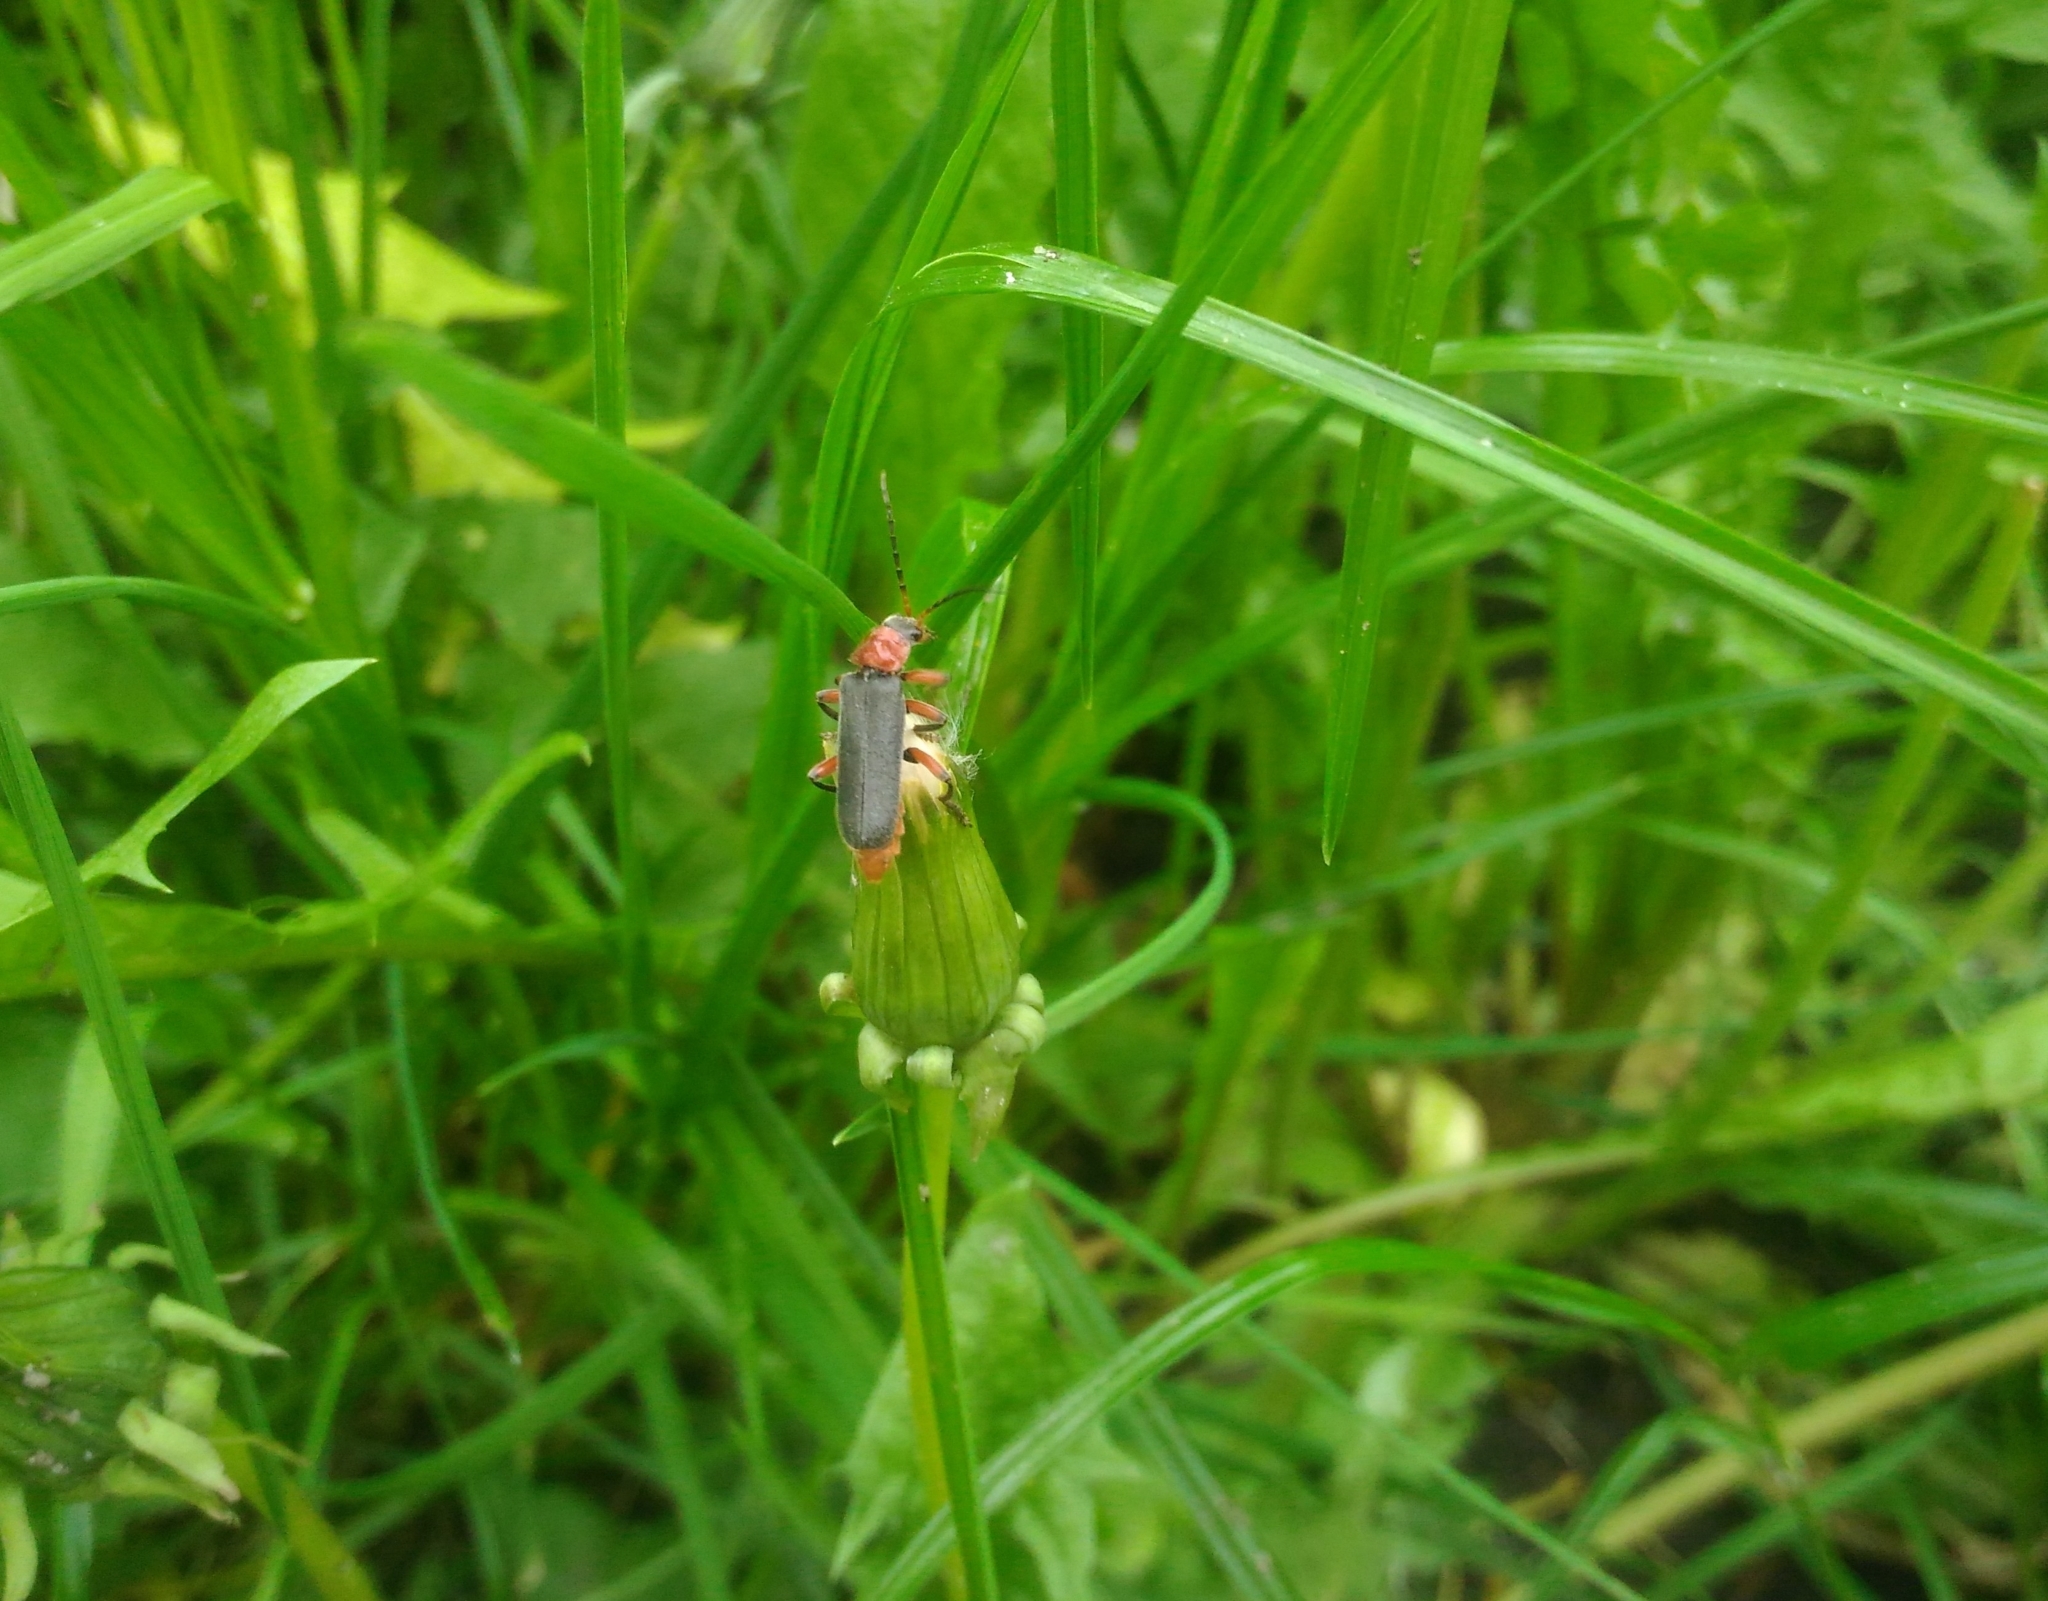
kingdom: Animalia
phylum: Arthropoda
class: Insecta
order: Coleoptera
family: Cantharidae
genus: Cantharis
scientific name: Cantharis pellucida
